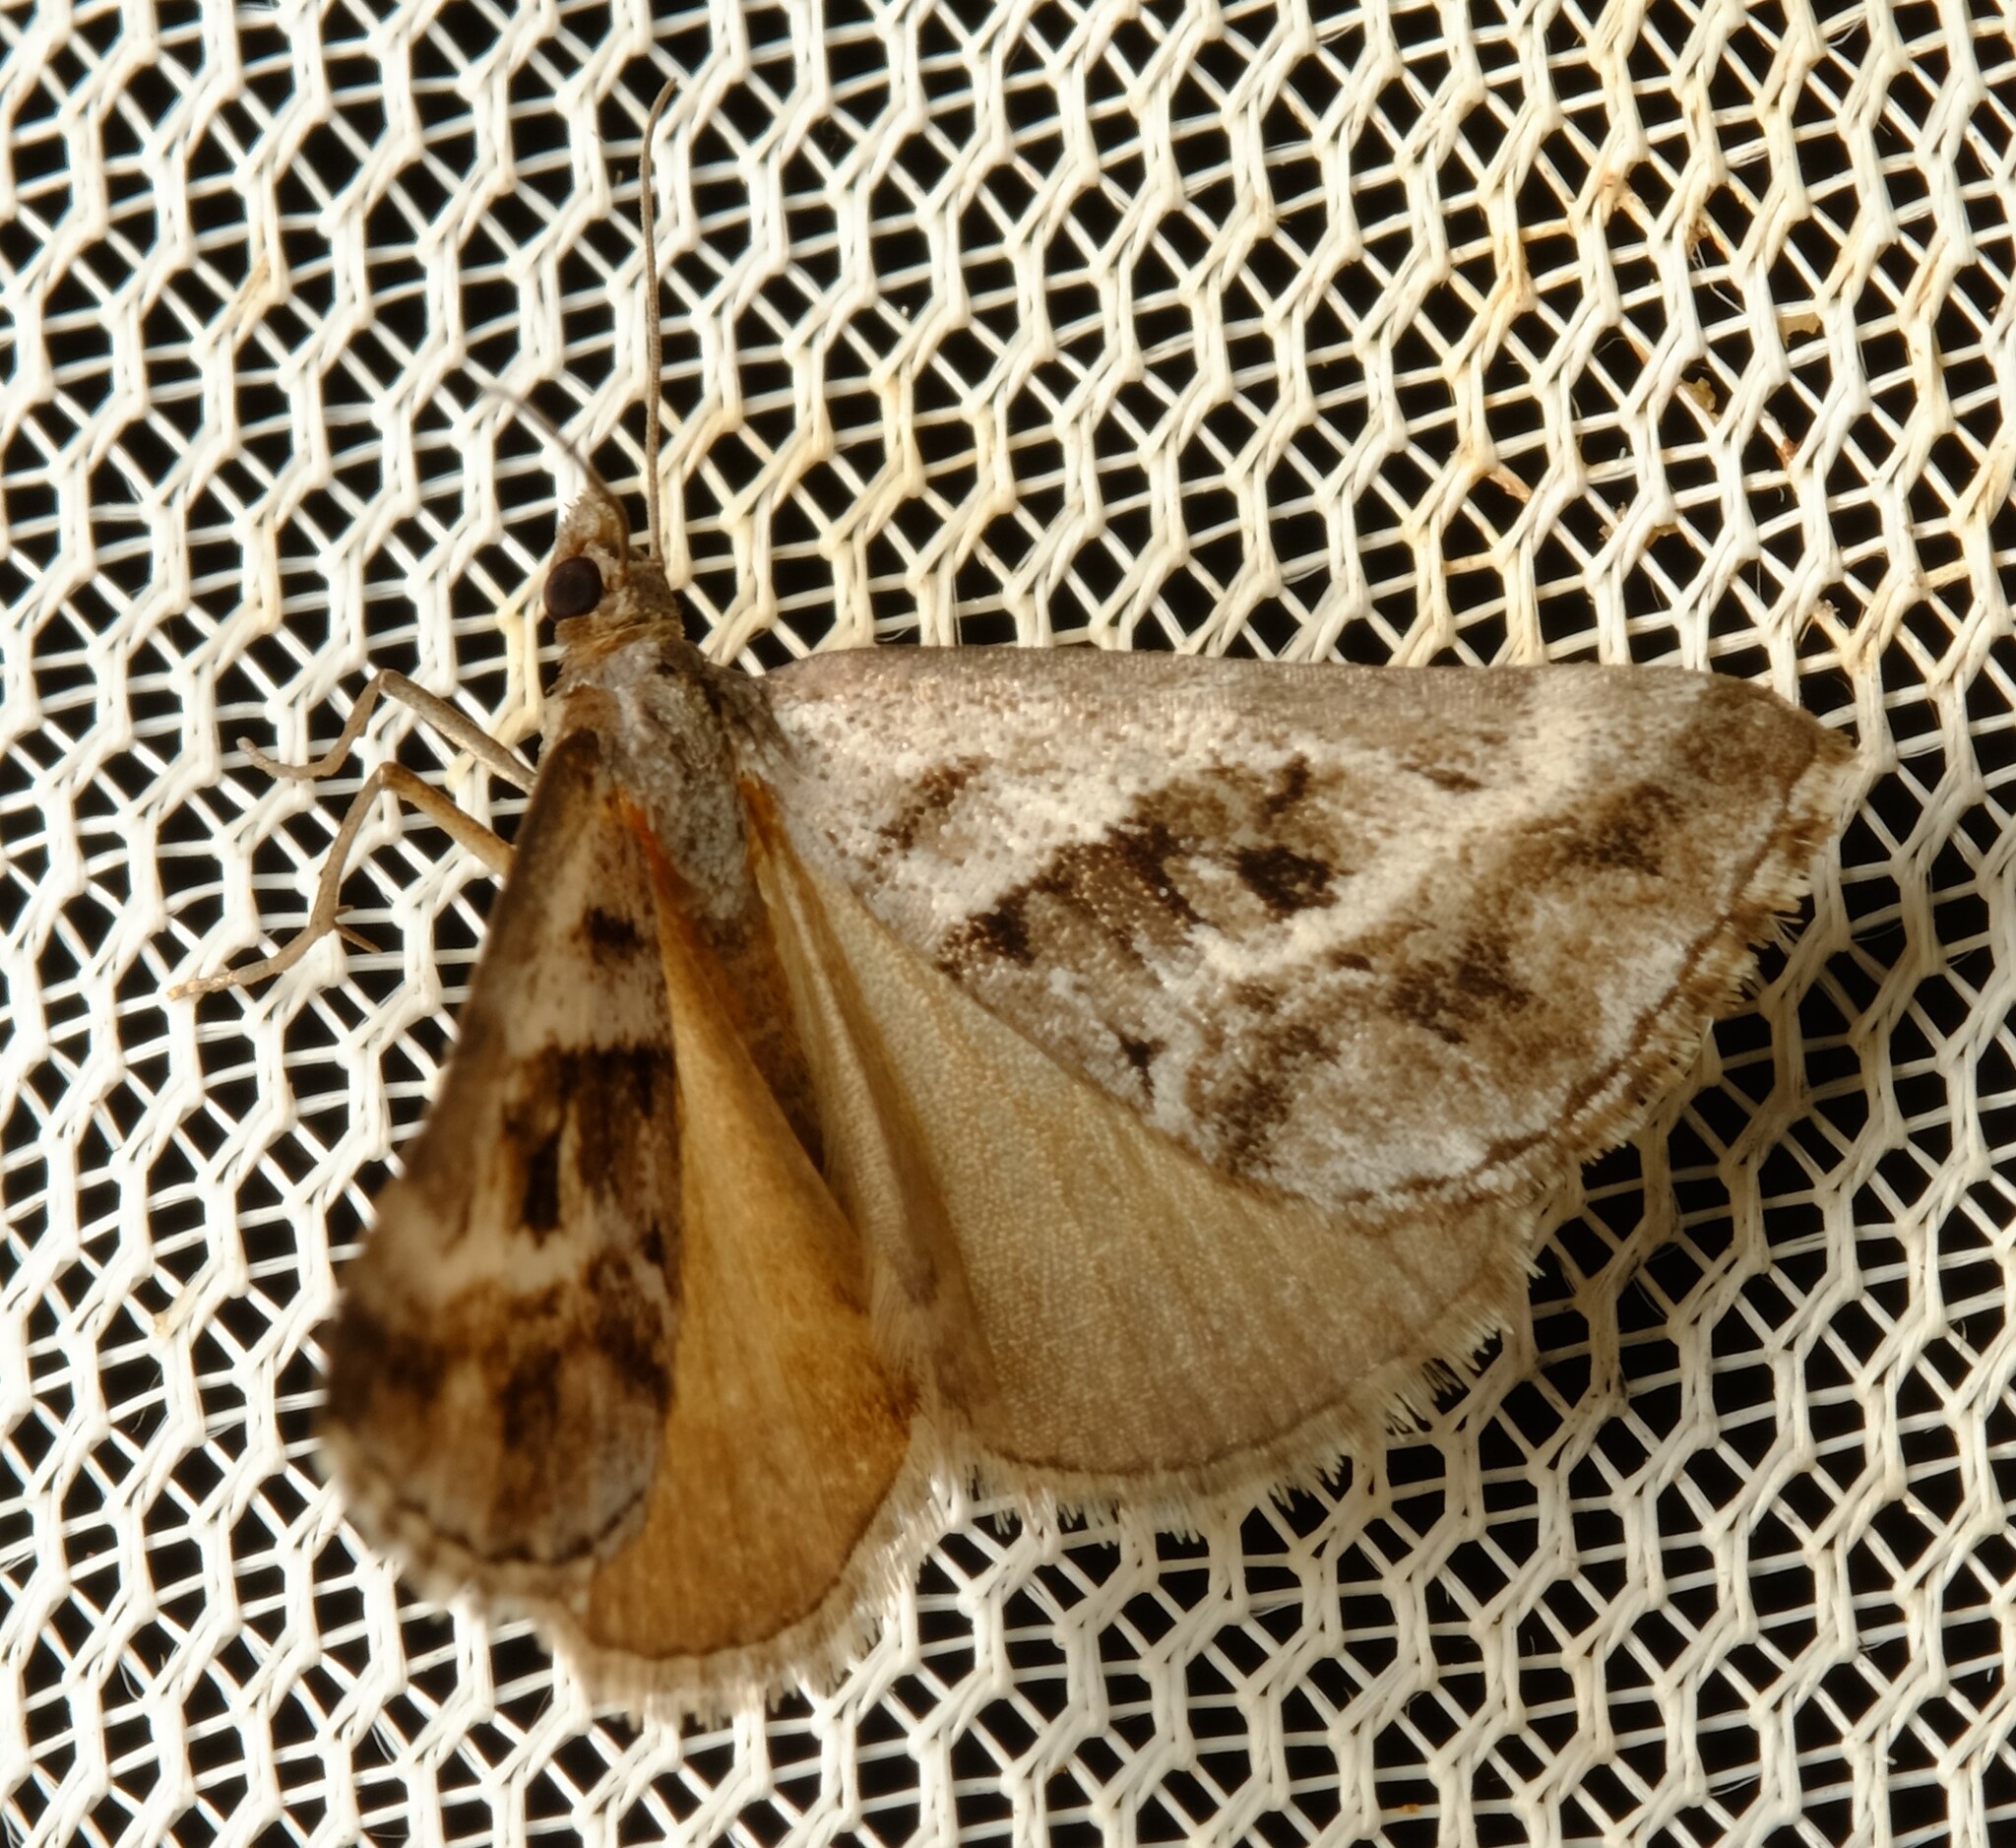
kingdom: Animalia
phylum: Arthropoda
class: Insecta
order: Lepidoptera
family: Geometridae
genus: Dichromodes
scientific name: Dichromodes stilbiata
